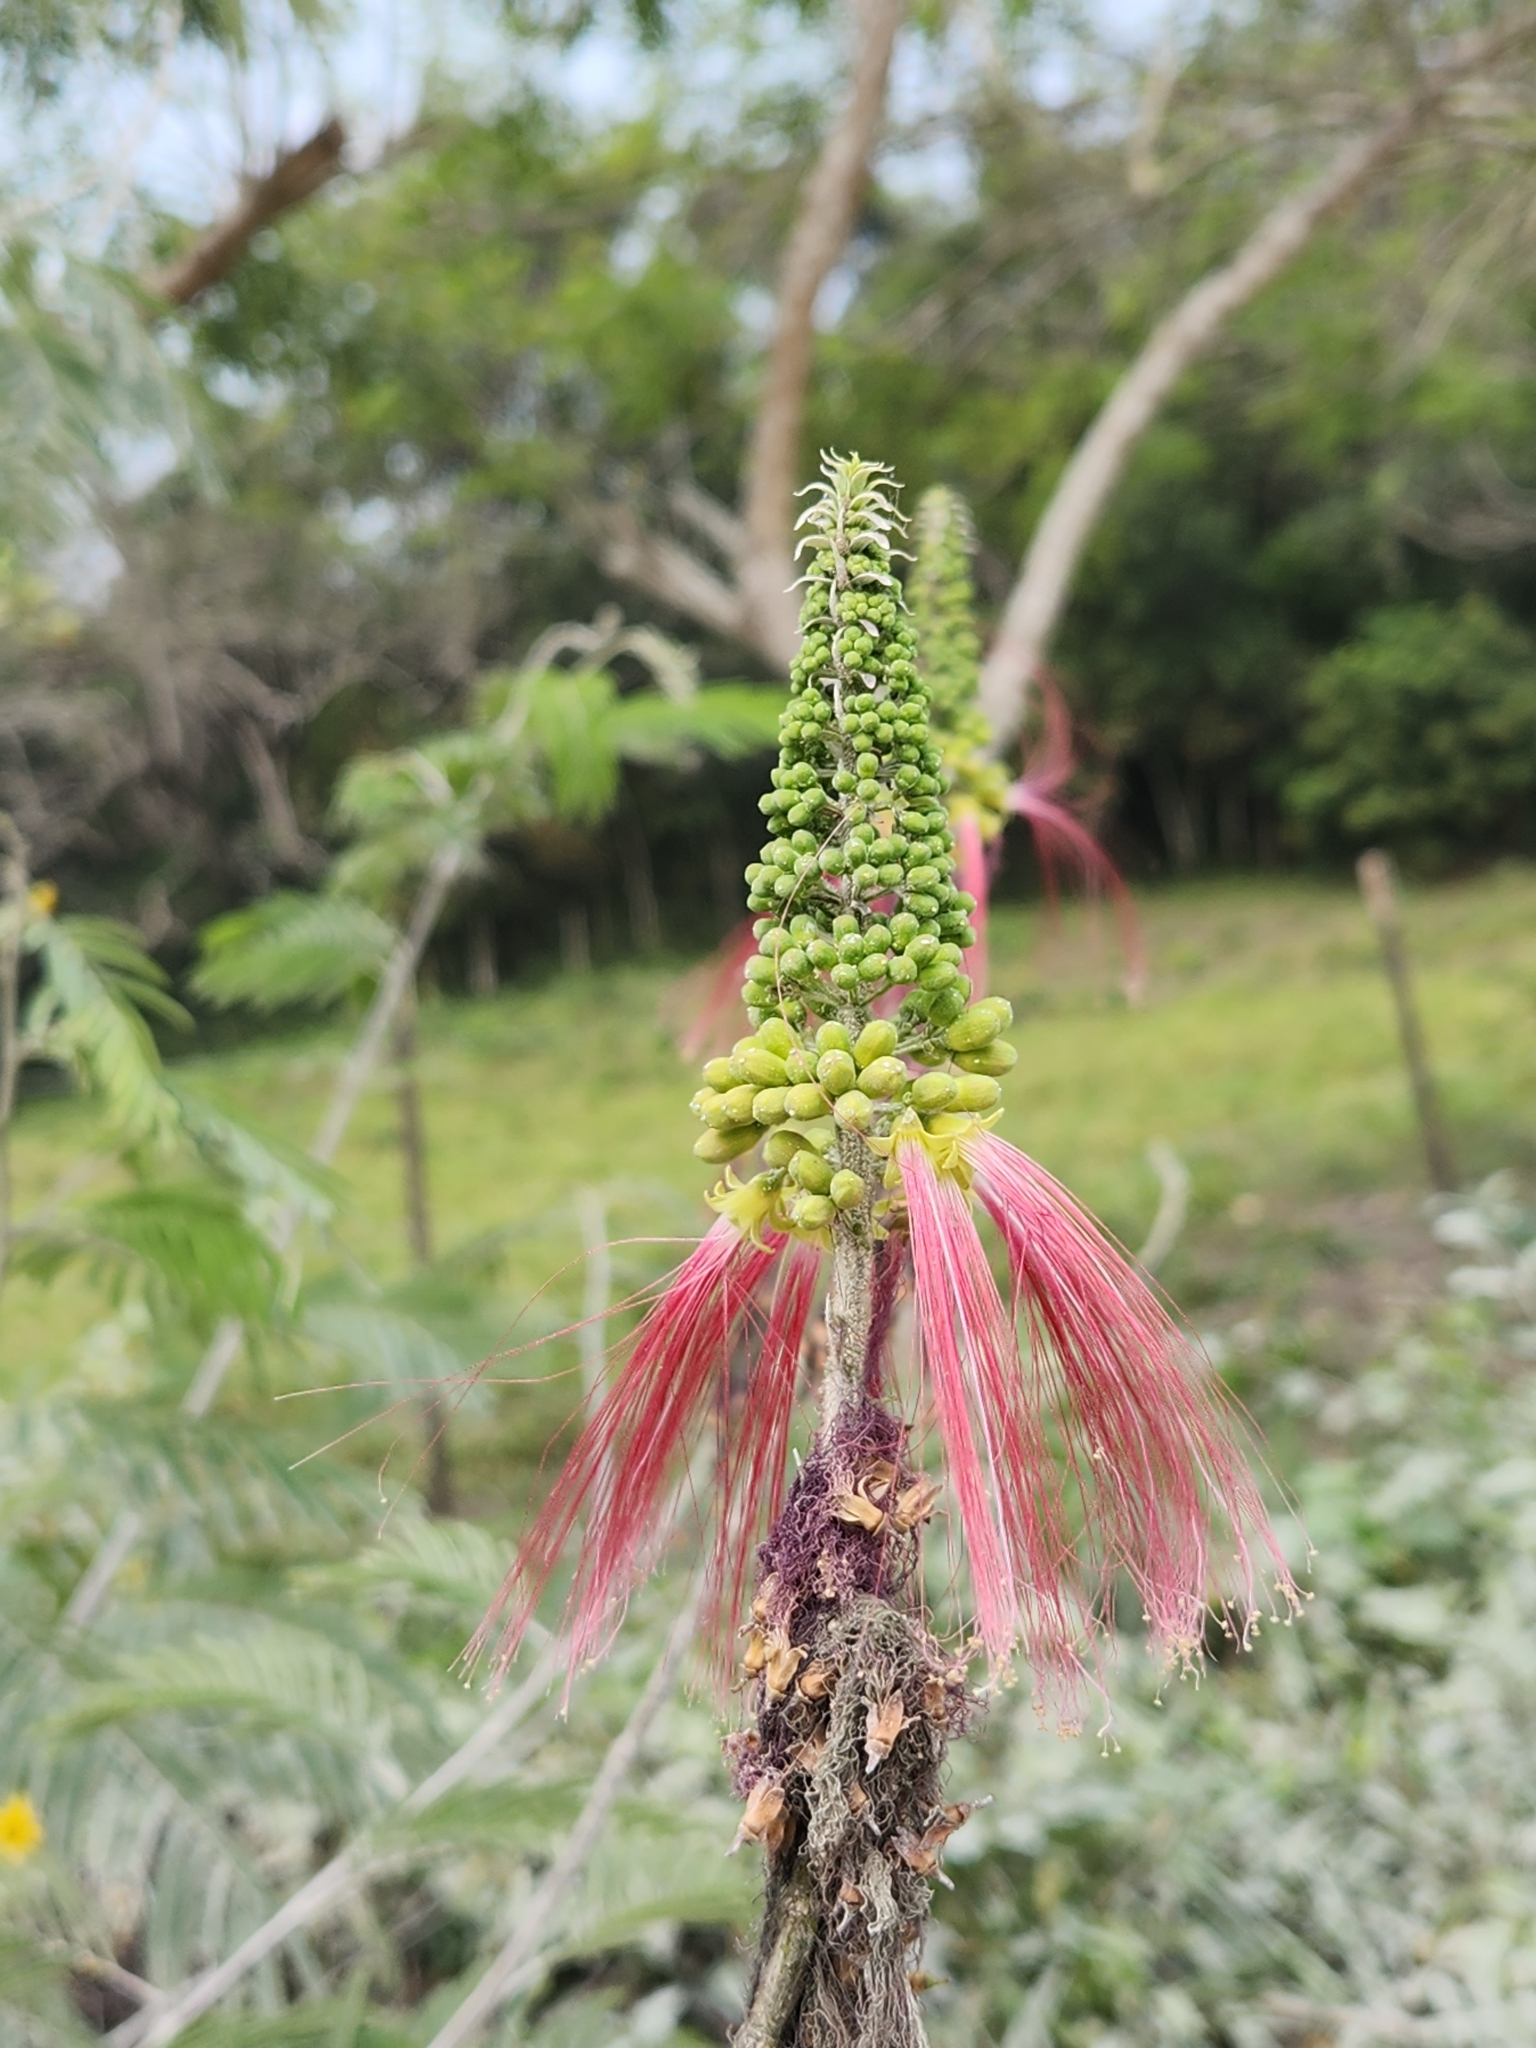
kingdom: Plantae
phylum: Tracheophyta
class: Magnoliopsida
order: Fabales
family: Fabaceae
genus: Calliandra
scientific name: Calliandra houstoniana
